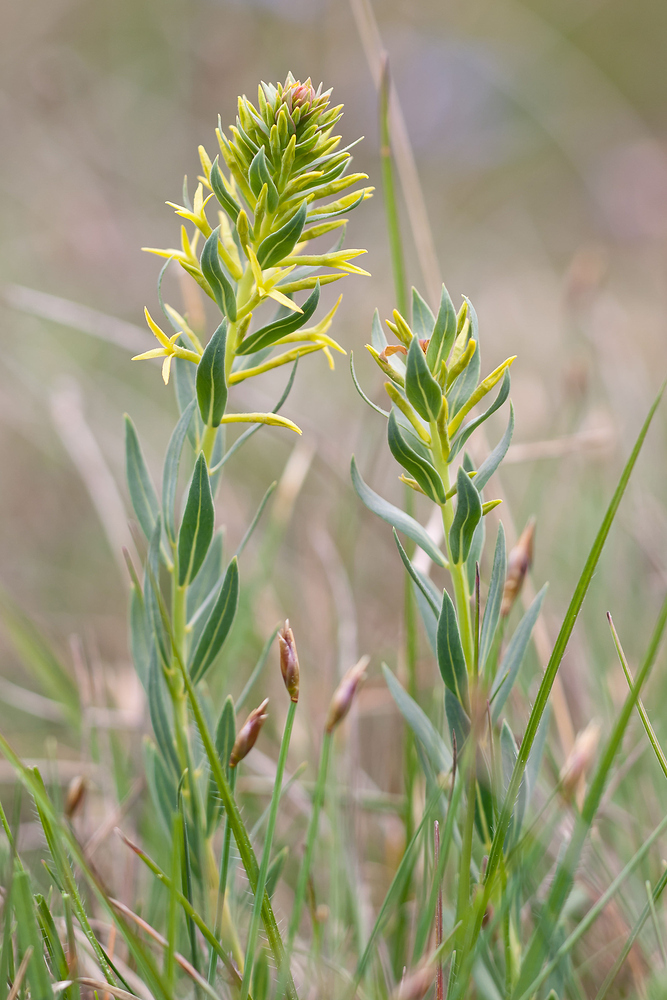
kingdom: Plantae
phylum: Tracheophyta
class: Magnoliopsida
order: Malvales
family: Thymelaeaceae
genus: Thymelaea
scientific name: Thymelaea sanamunda
